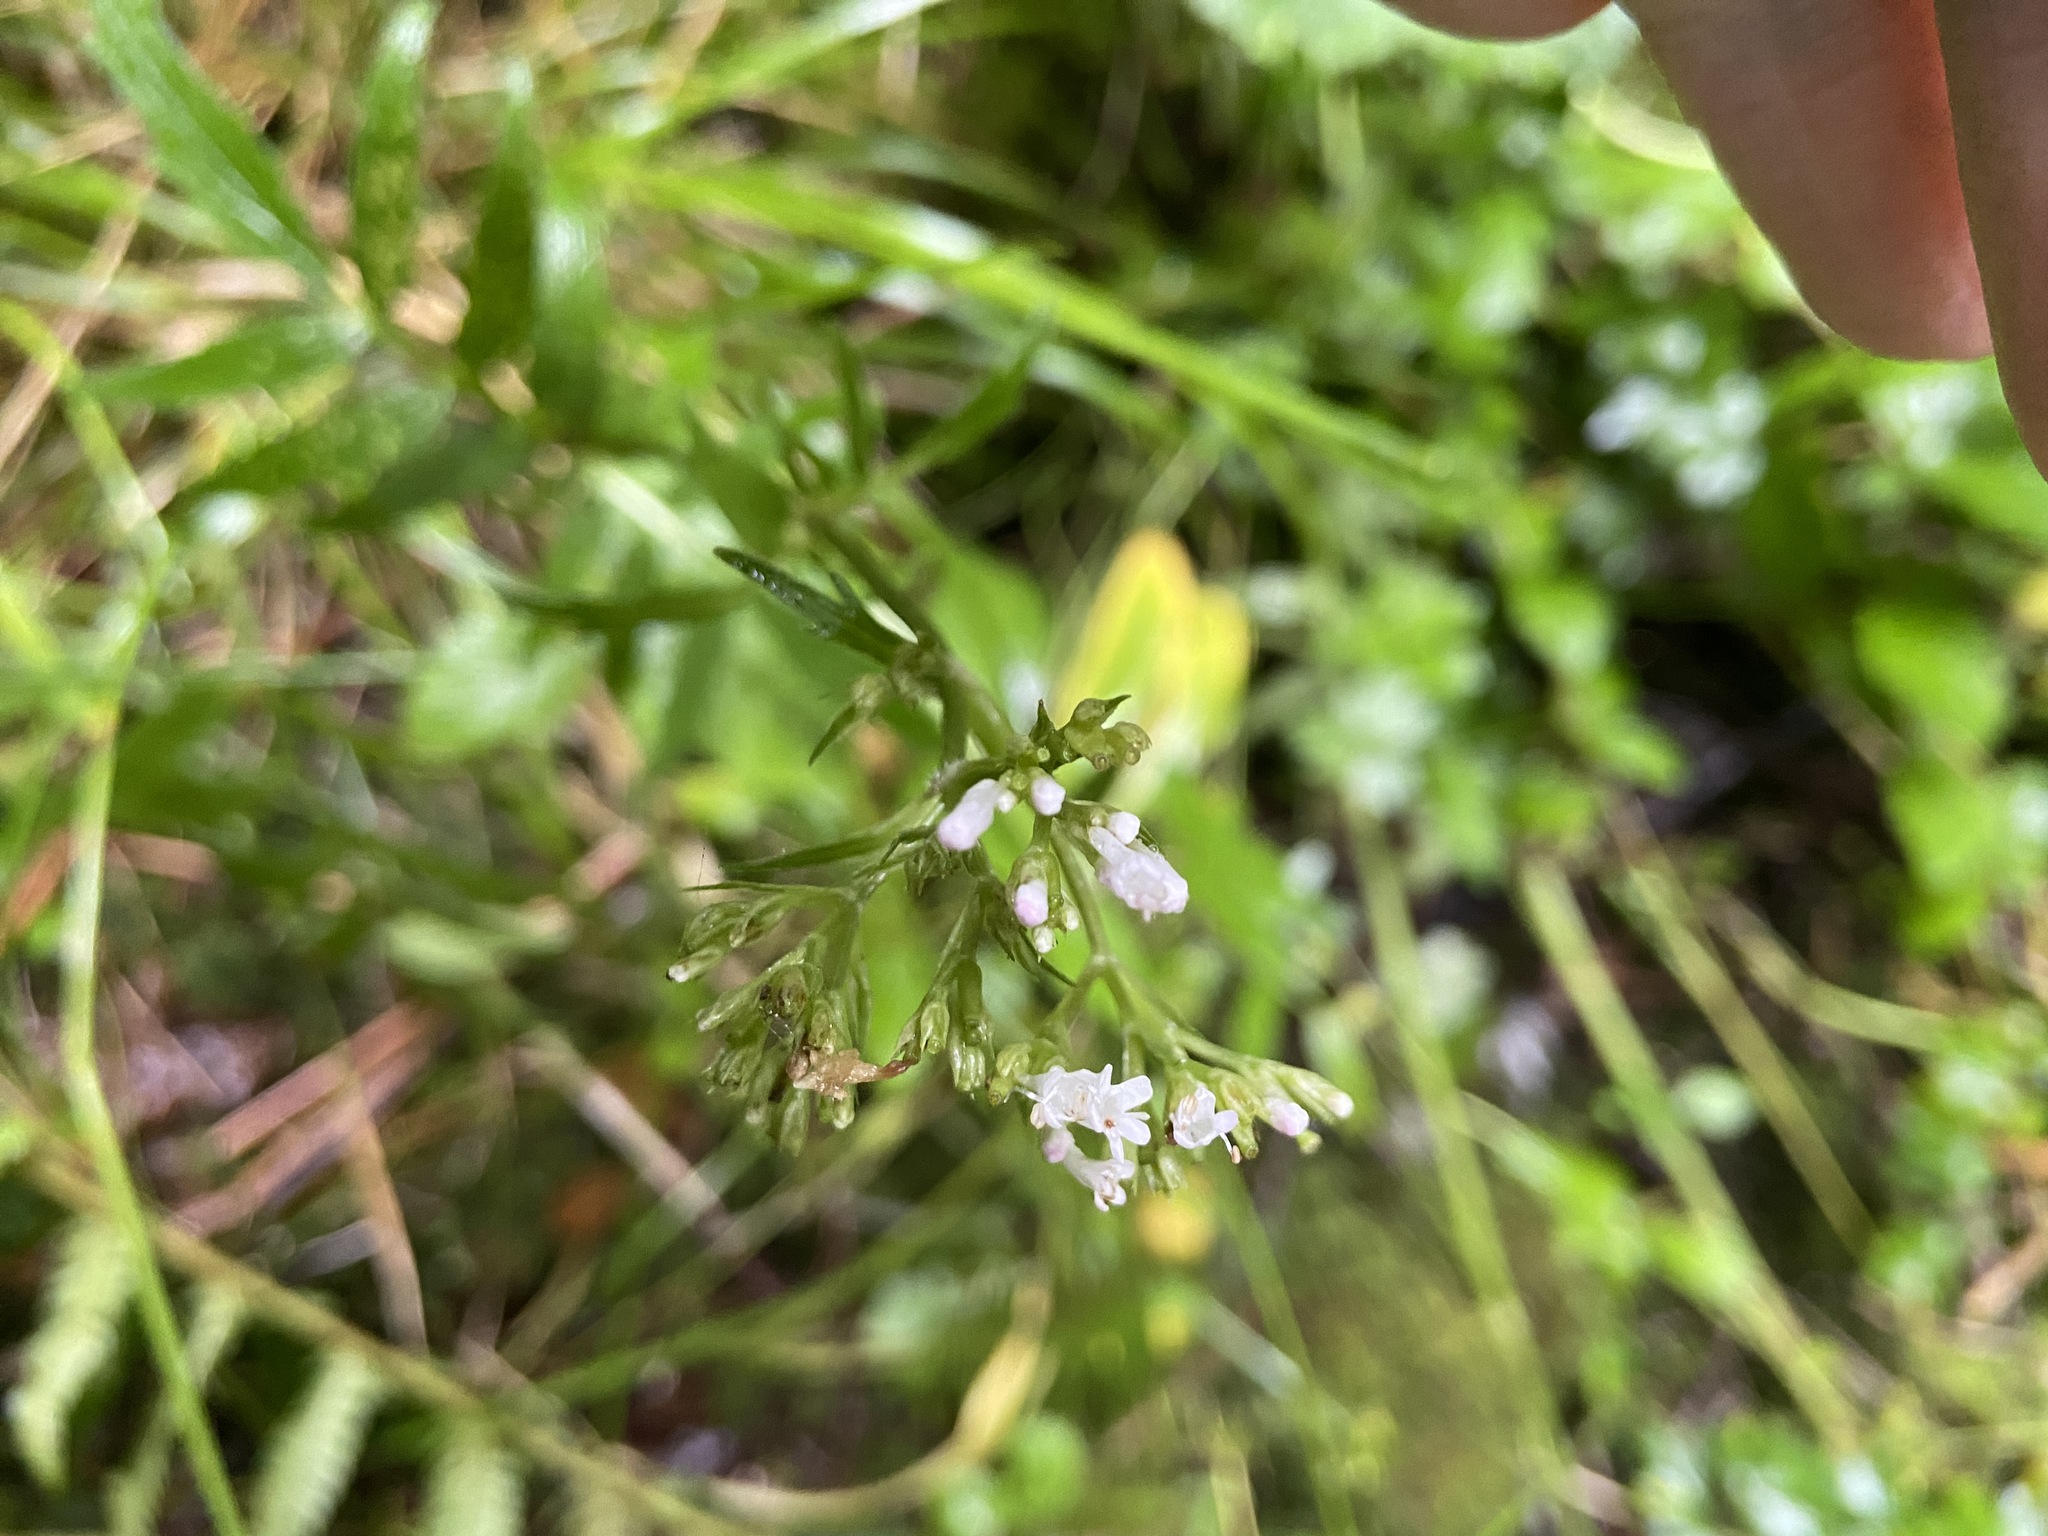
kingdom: Plantae
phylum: Tracheophyta
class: Magnoliopsida
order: Dipsacales
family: Caprifoliaceae
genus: Valeriana
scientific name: Valeriana officinalis
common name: Common valerian
